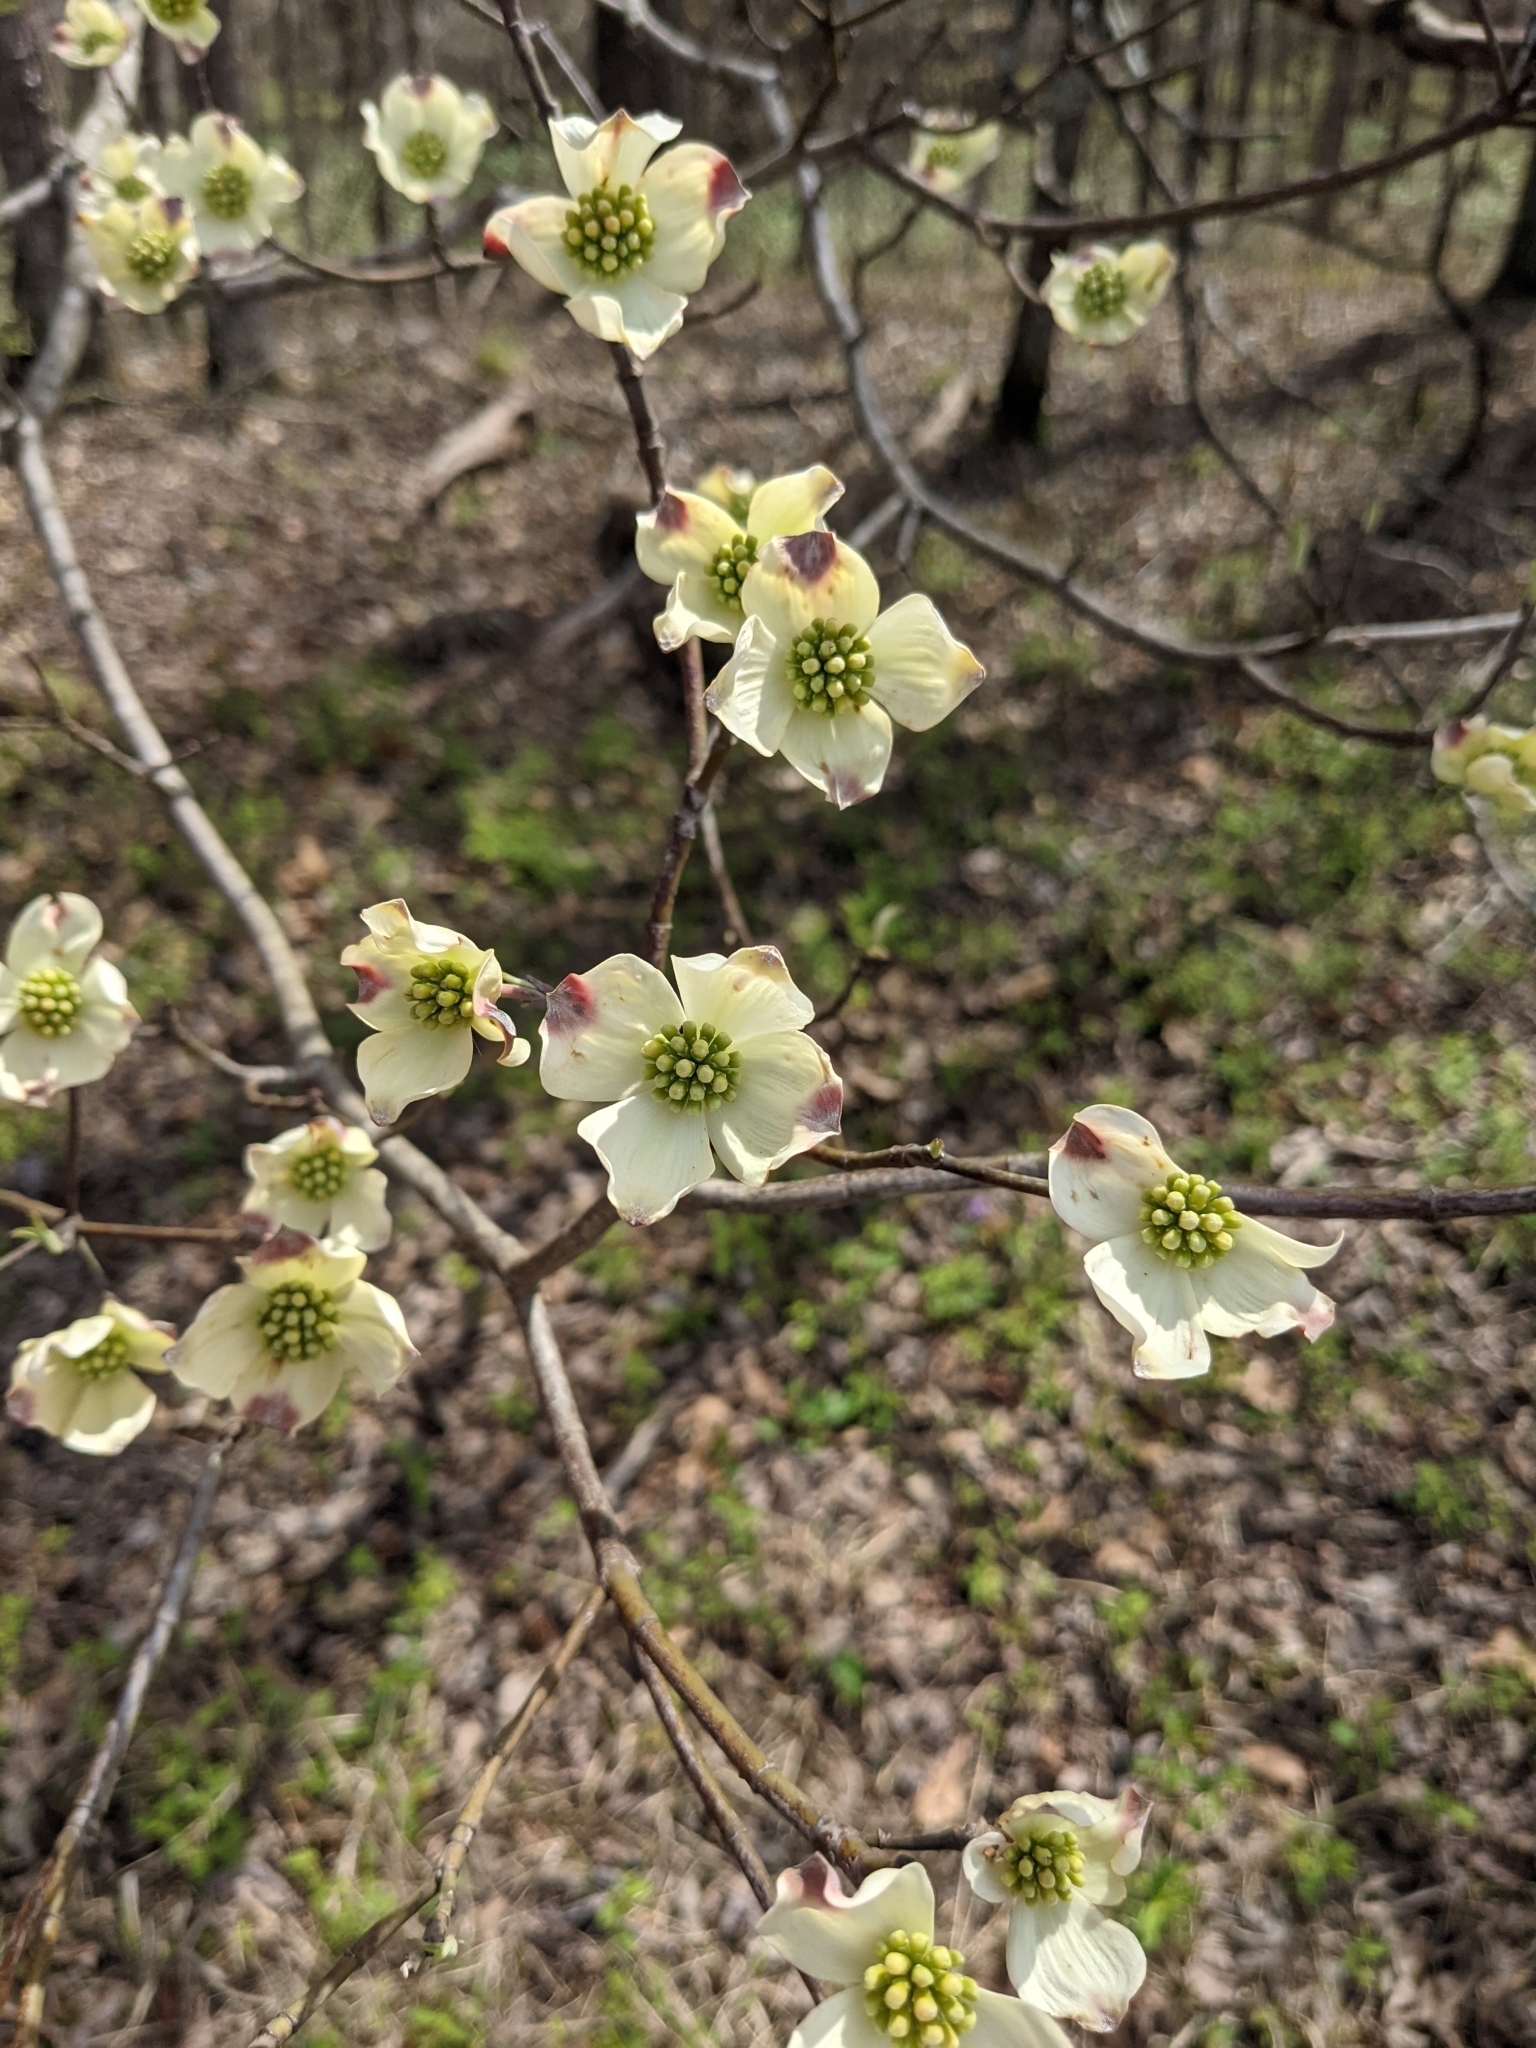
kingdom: Plantae
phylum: Tracheophyta
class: Magnoliopsida
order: Cornales
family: Cornaceae
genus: Cornus
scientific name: Cornus florida
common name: Flowering dogwood
